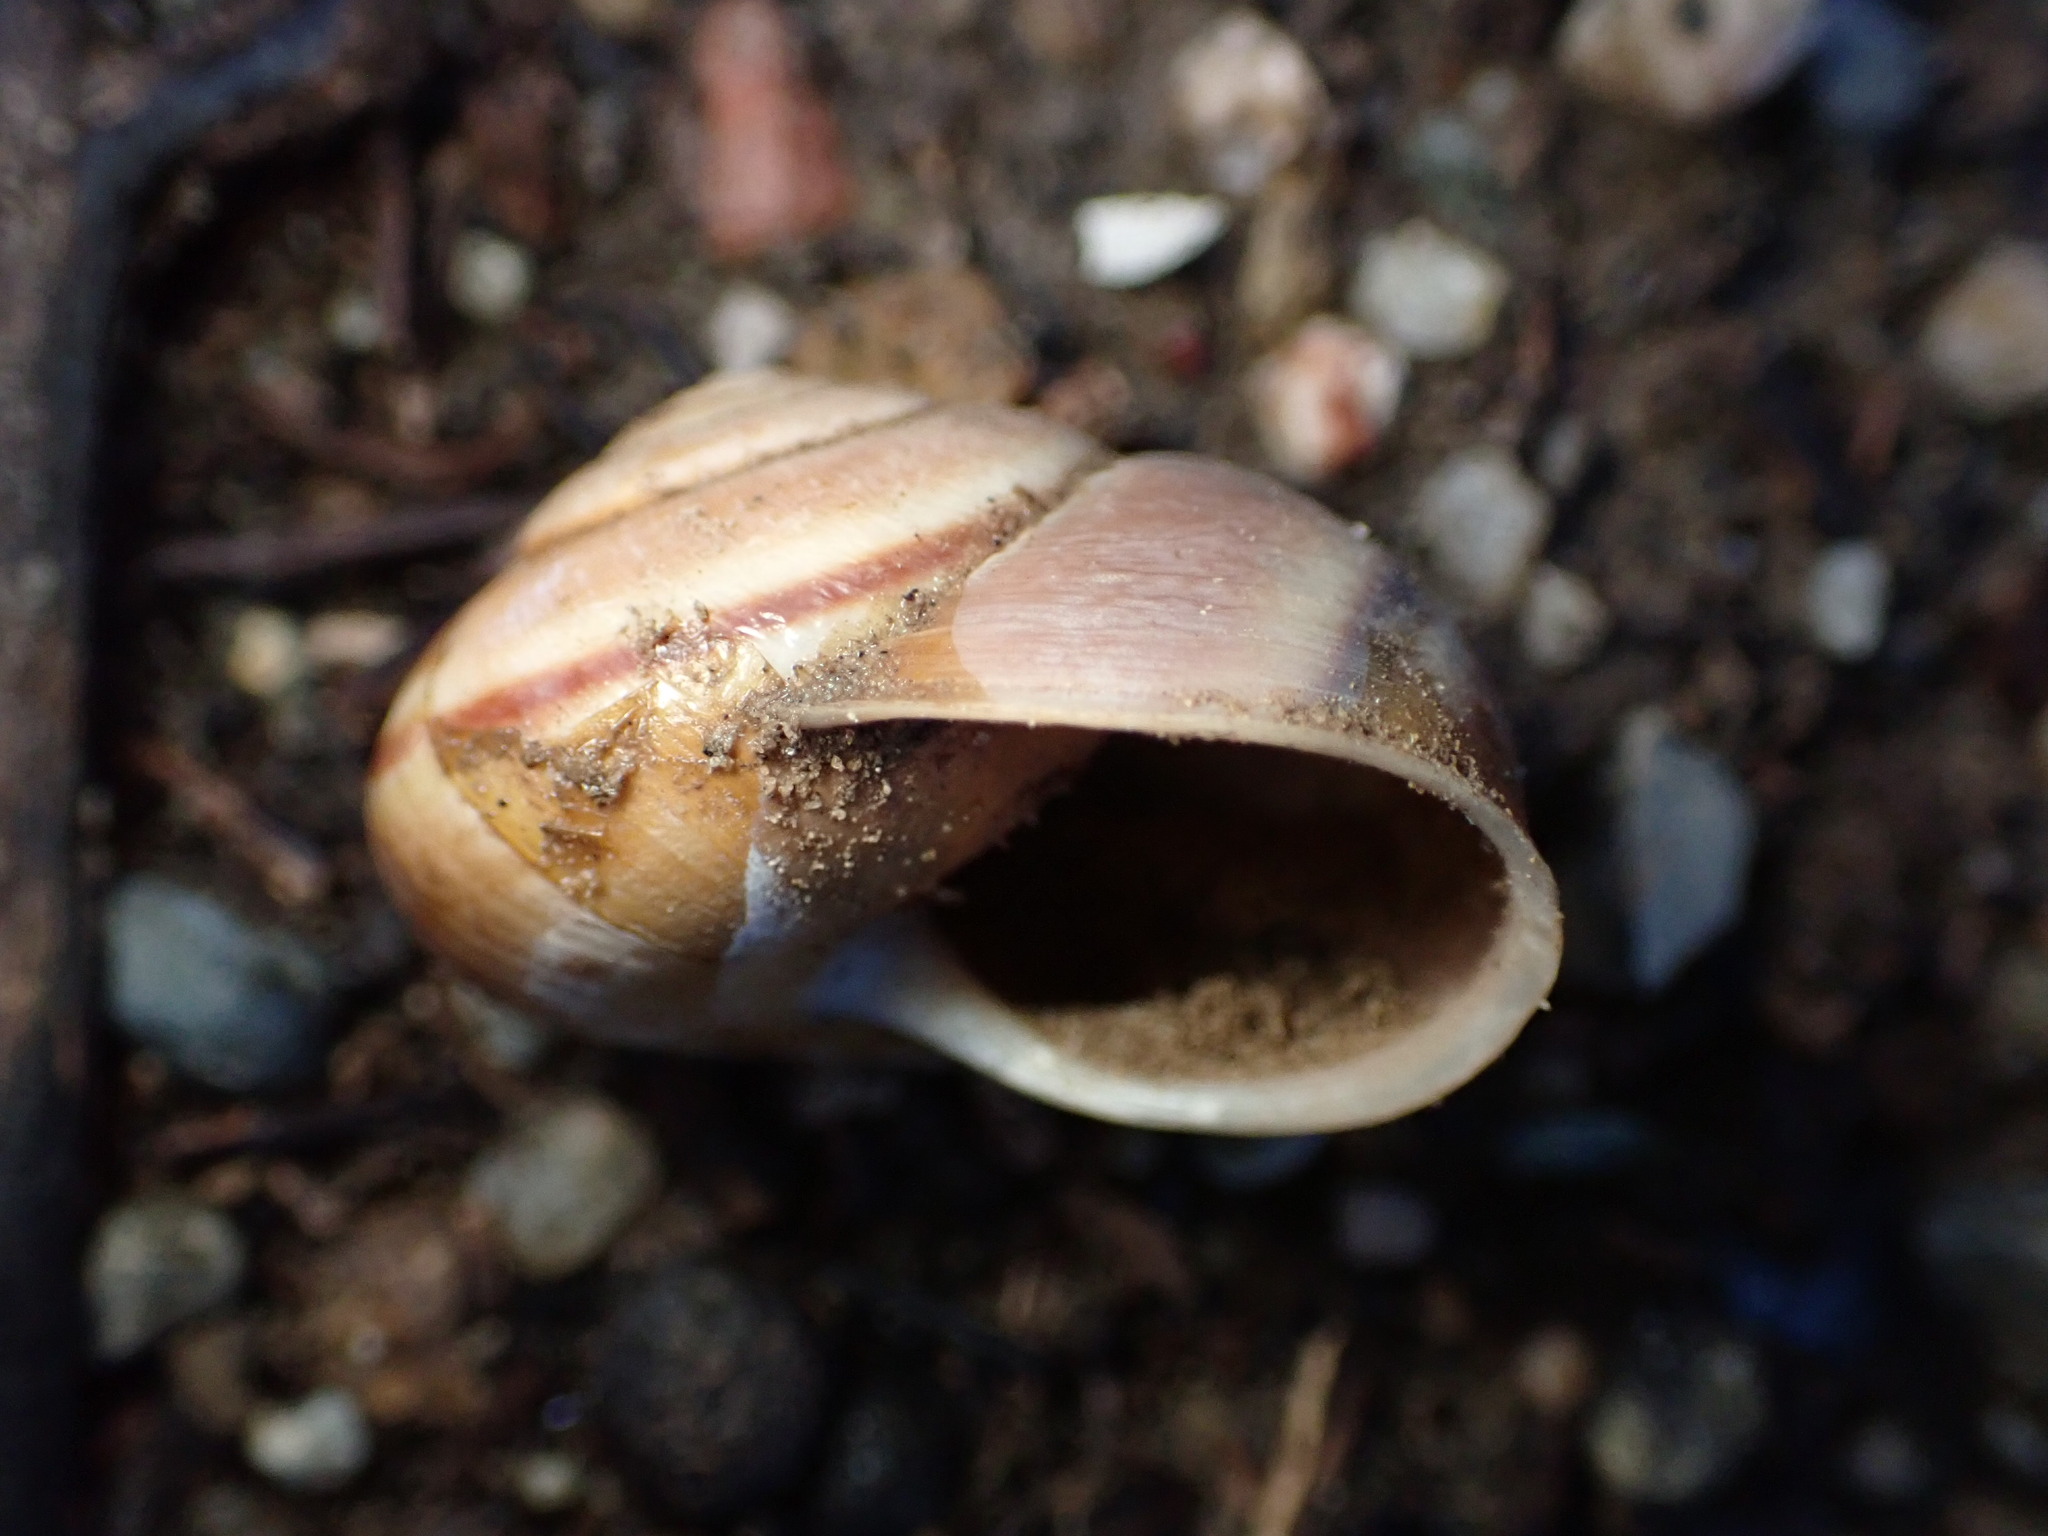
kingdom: Animalia
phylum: Mollusca
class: Gastropoda
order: Stylommatophora
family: Xanthonychidae
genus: Helminthoglypta
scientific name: Helminthoglypta tudiculata
